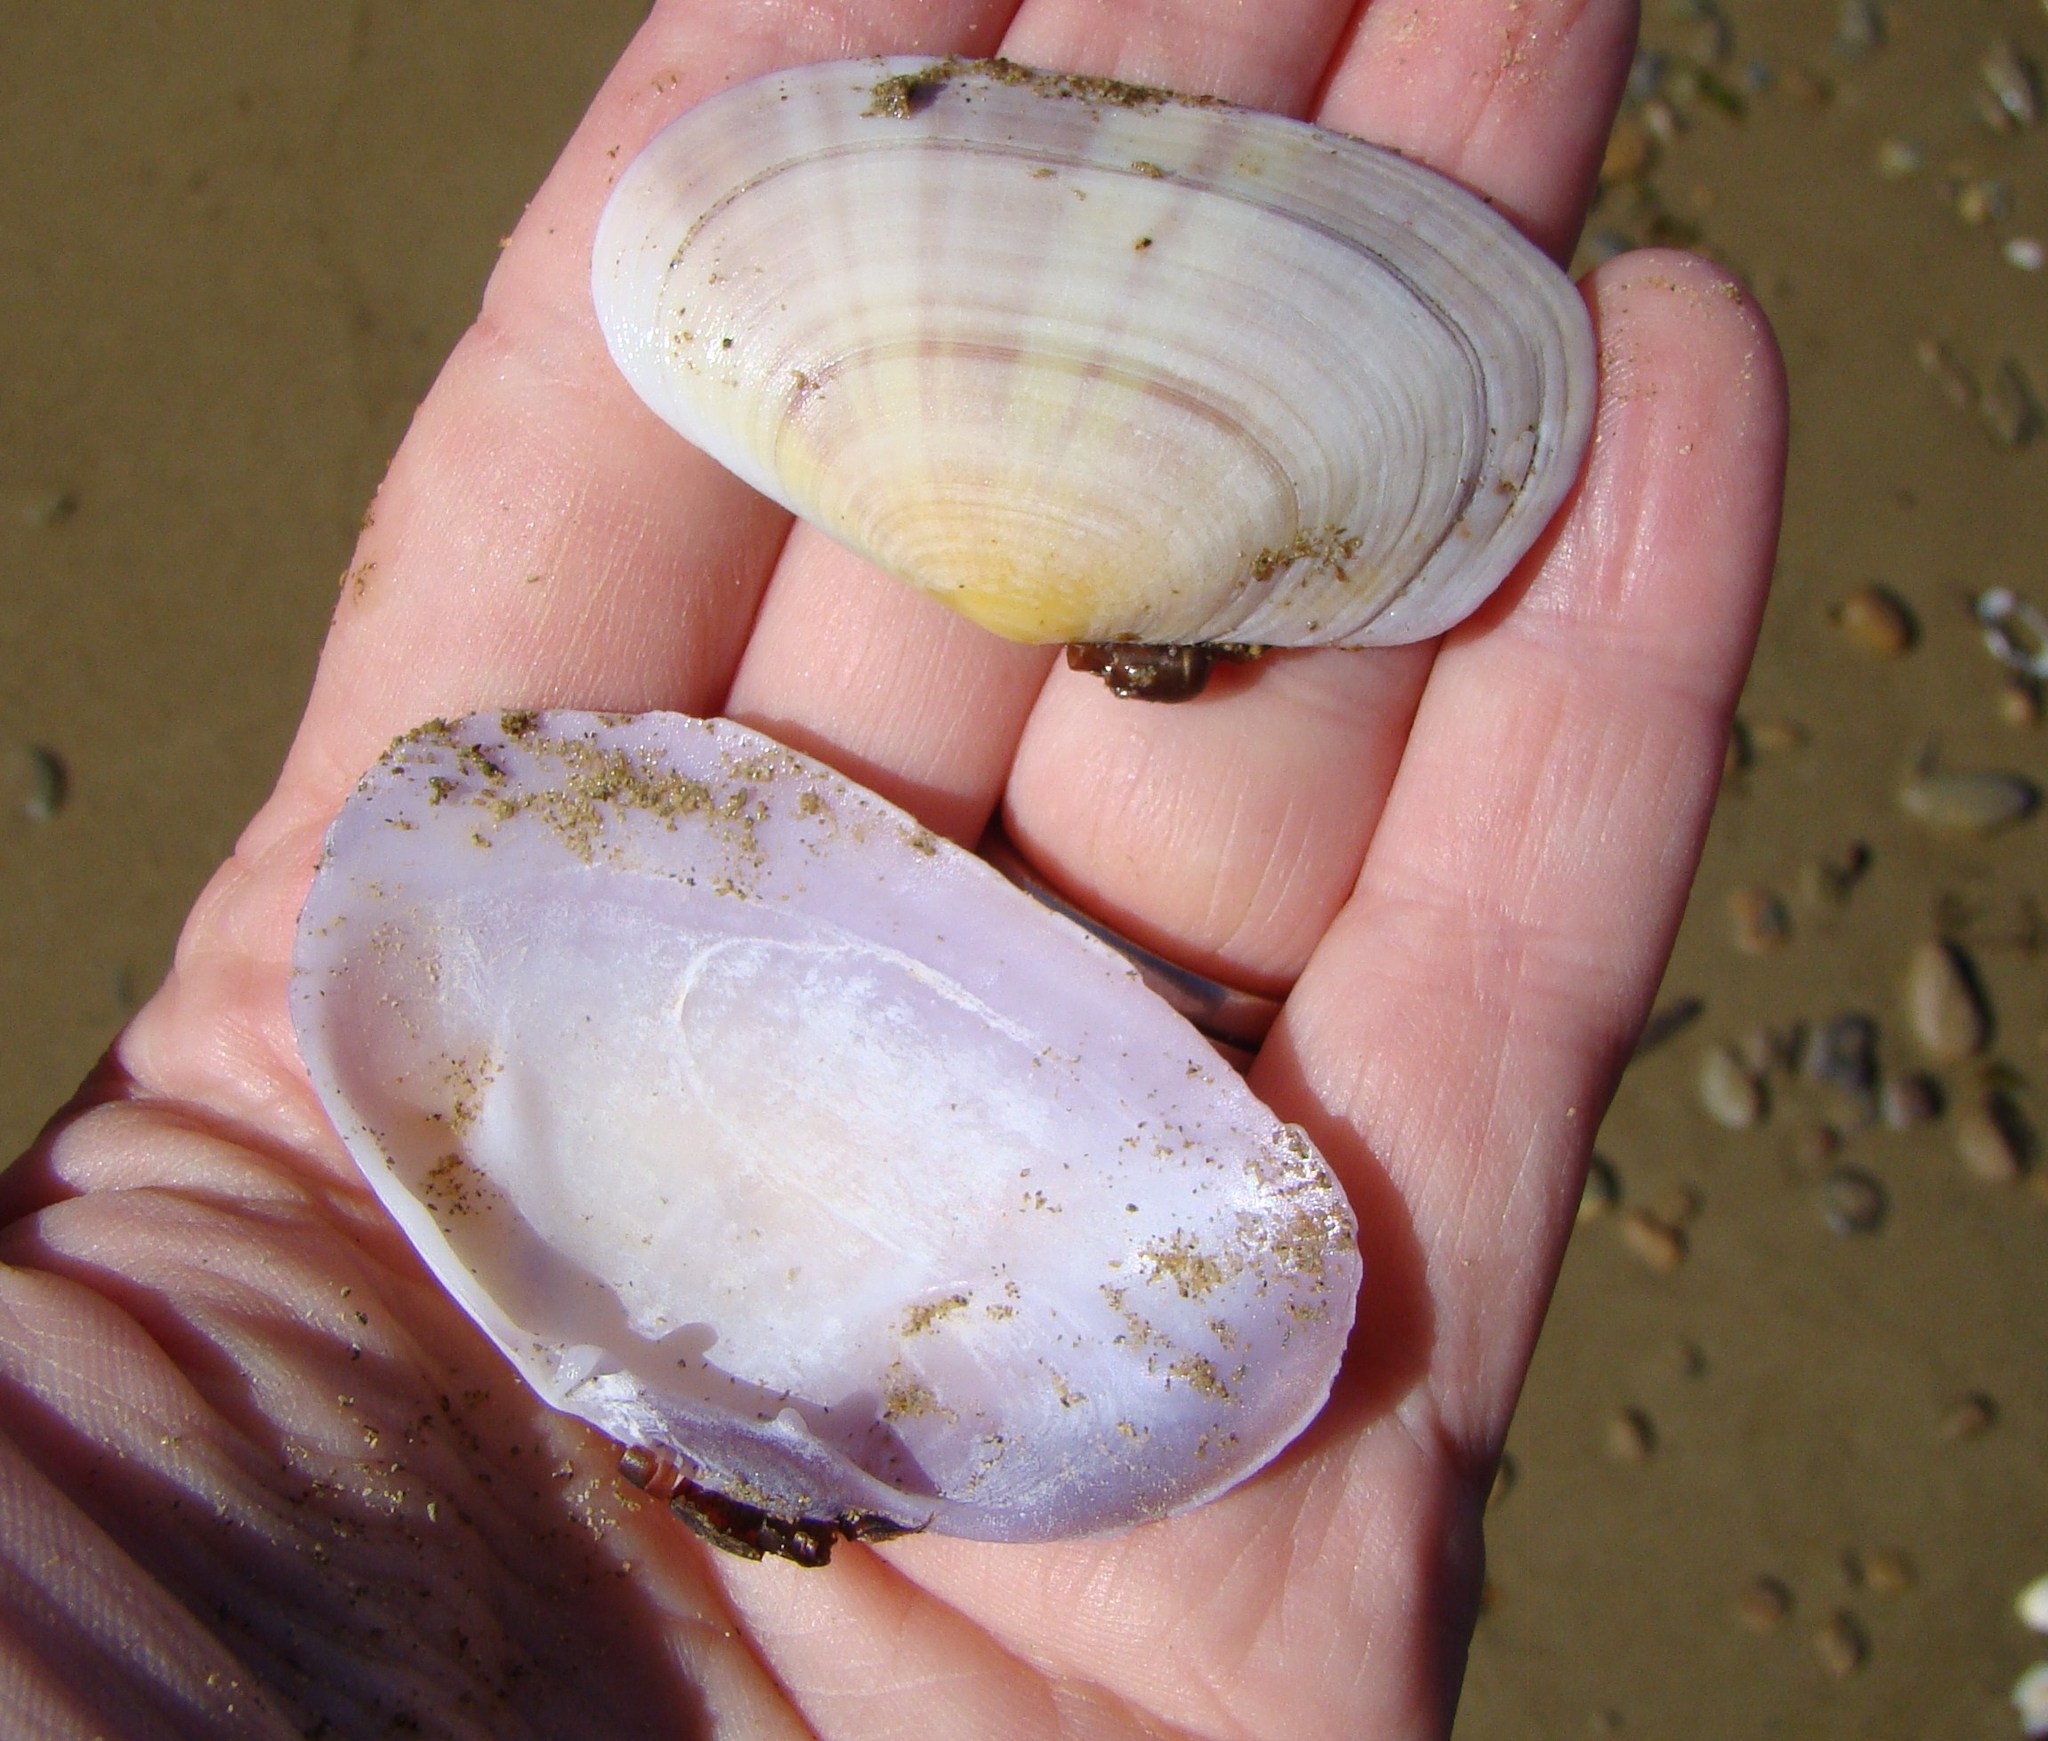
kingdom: Animalia
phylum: Mollusca
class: Bivalvia
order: Cardiida
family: Psammobiidae
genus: Gari
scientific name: Gari stangeri
